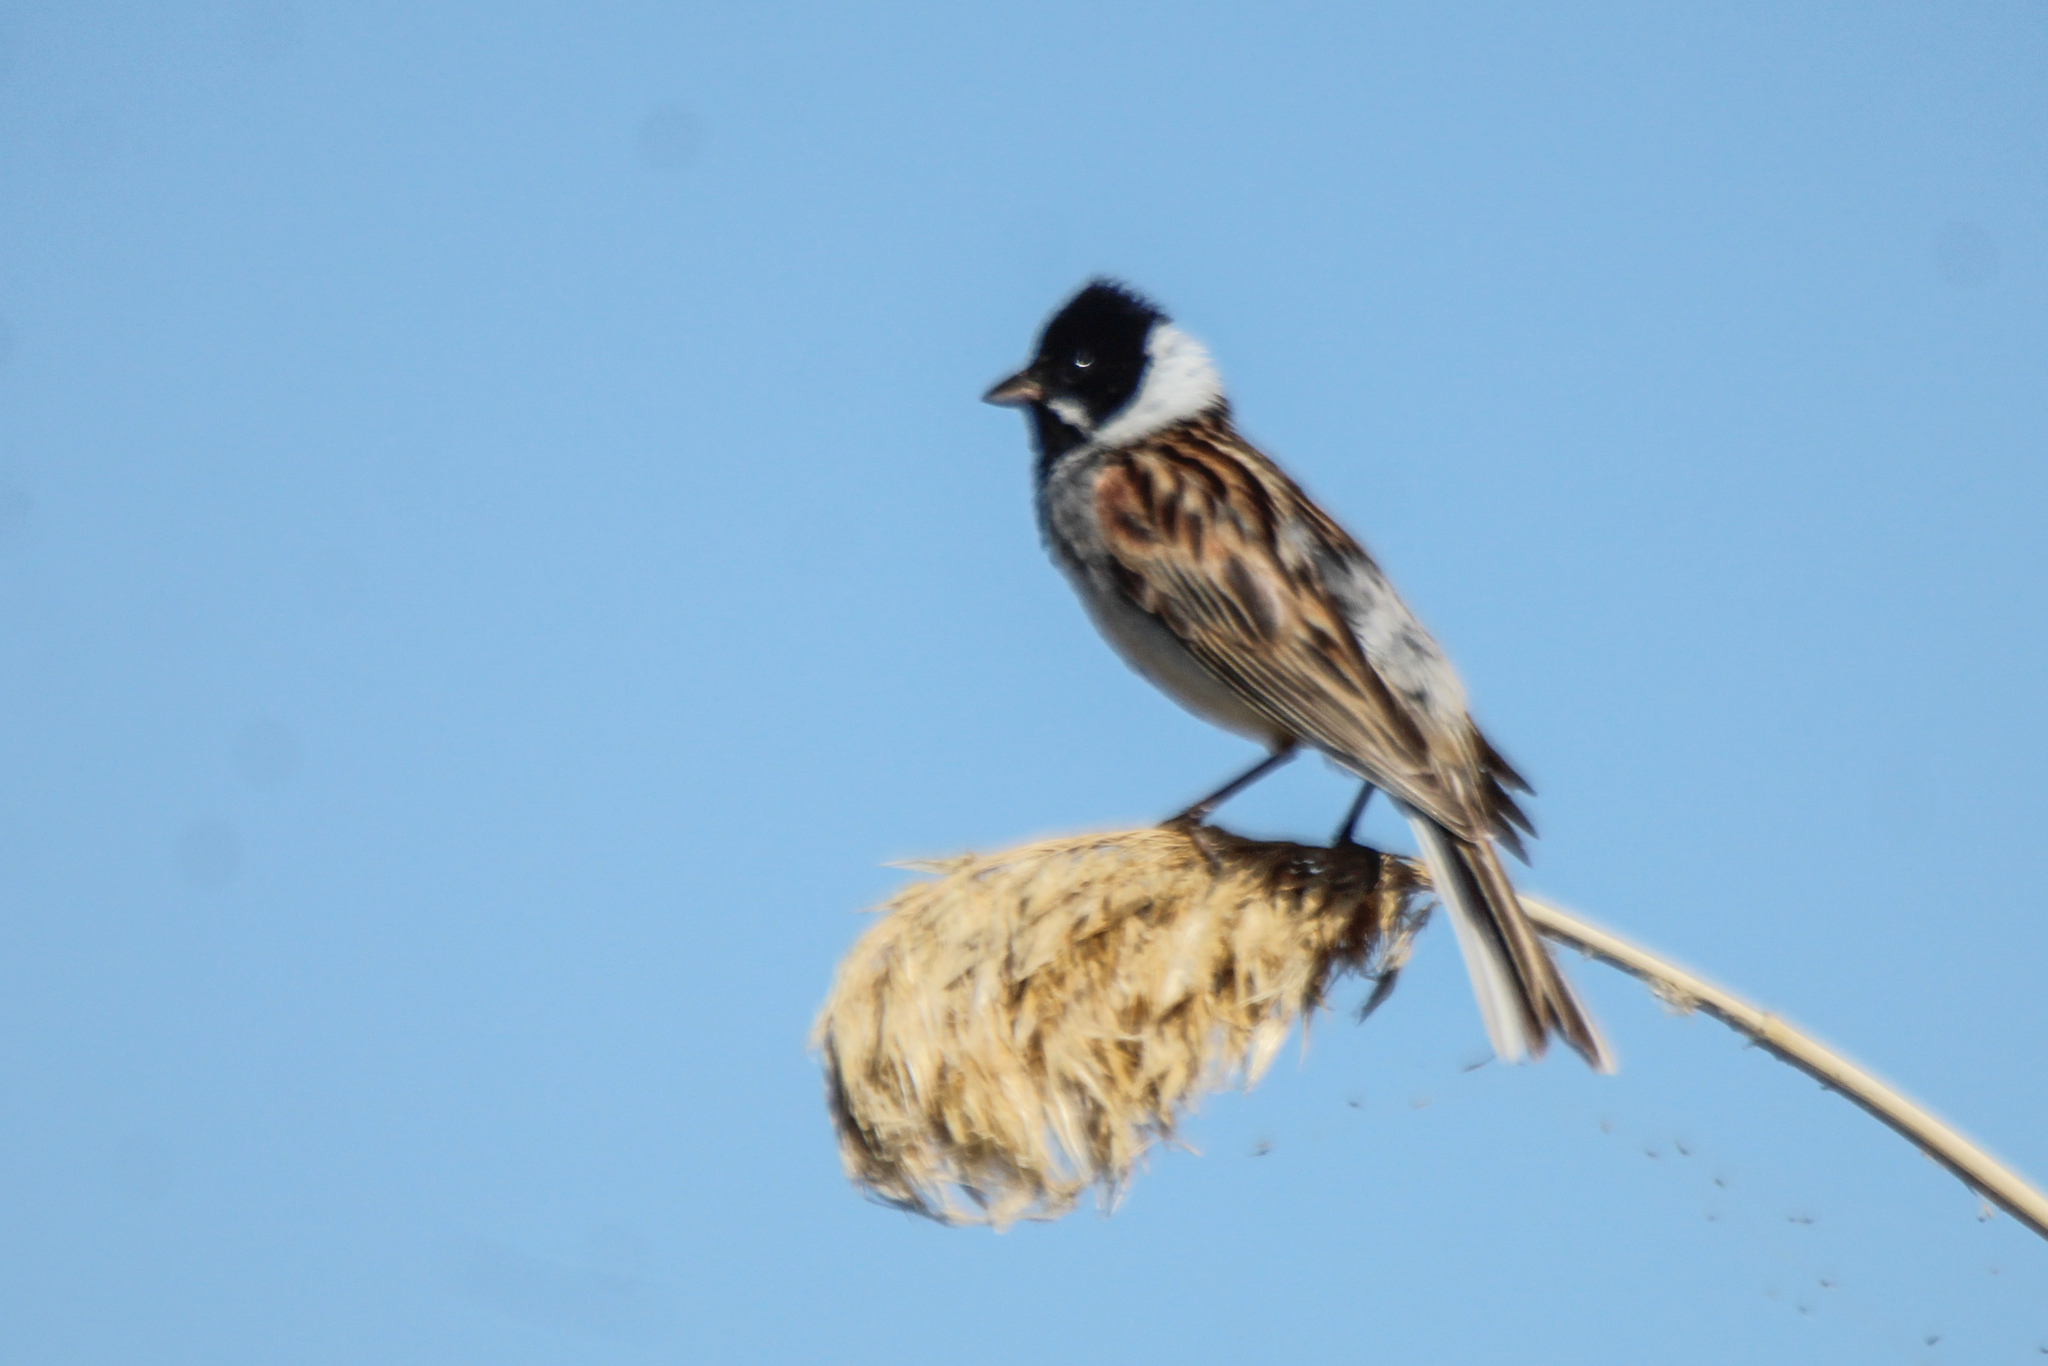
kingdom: Animalia
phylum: Chordata
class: Aves
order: Passeriformes
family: Emberizidae
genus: Emberiza
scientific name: Emberiza schoeniclus
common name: Reed bunting
